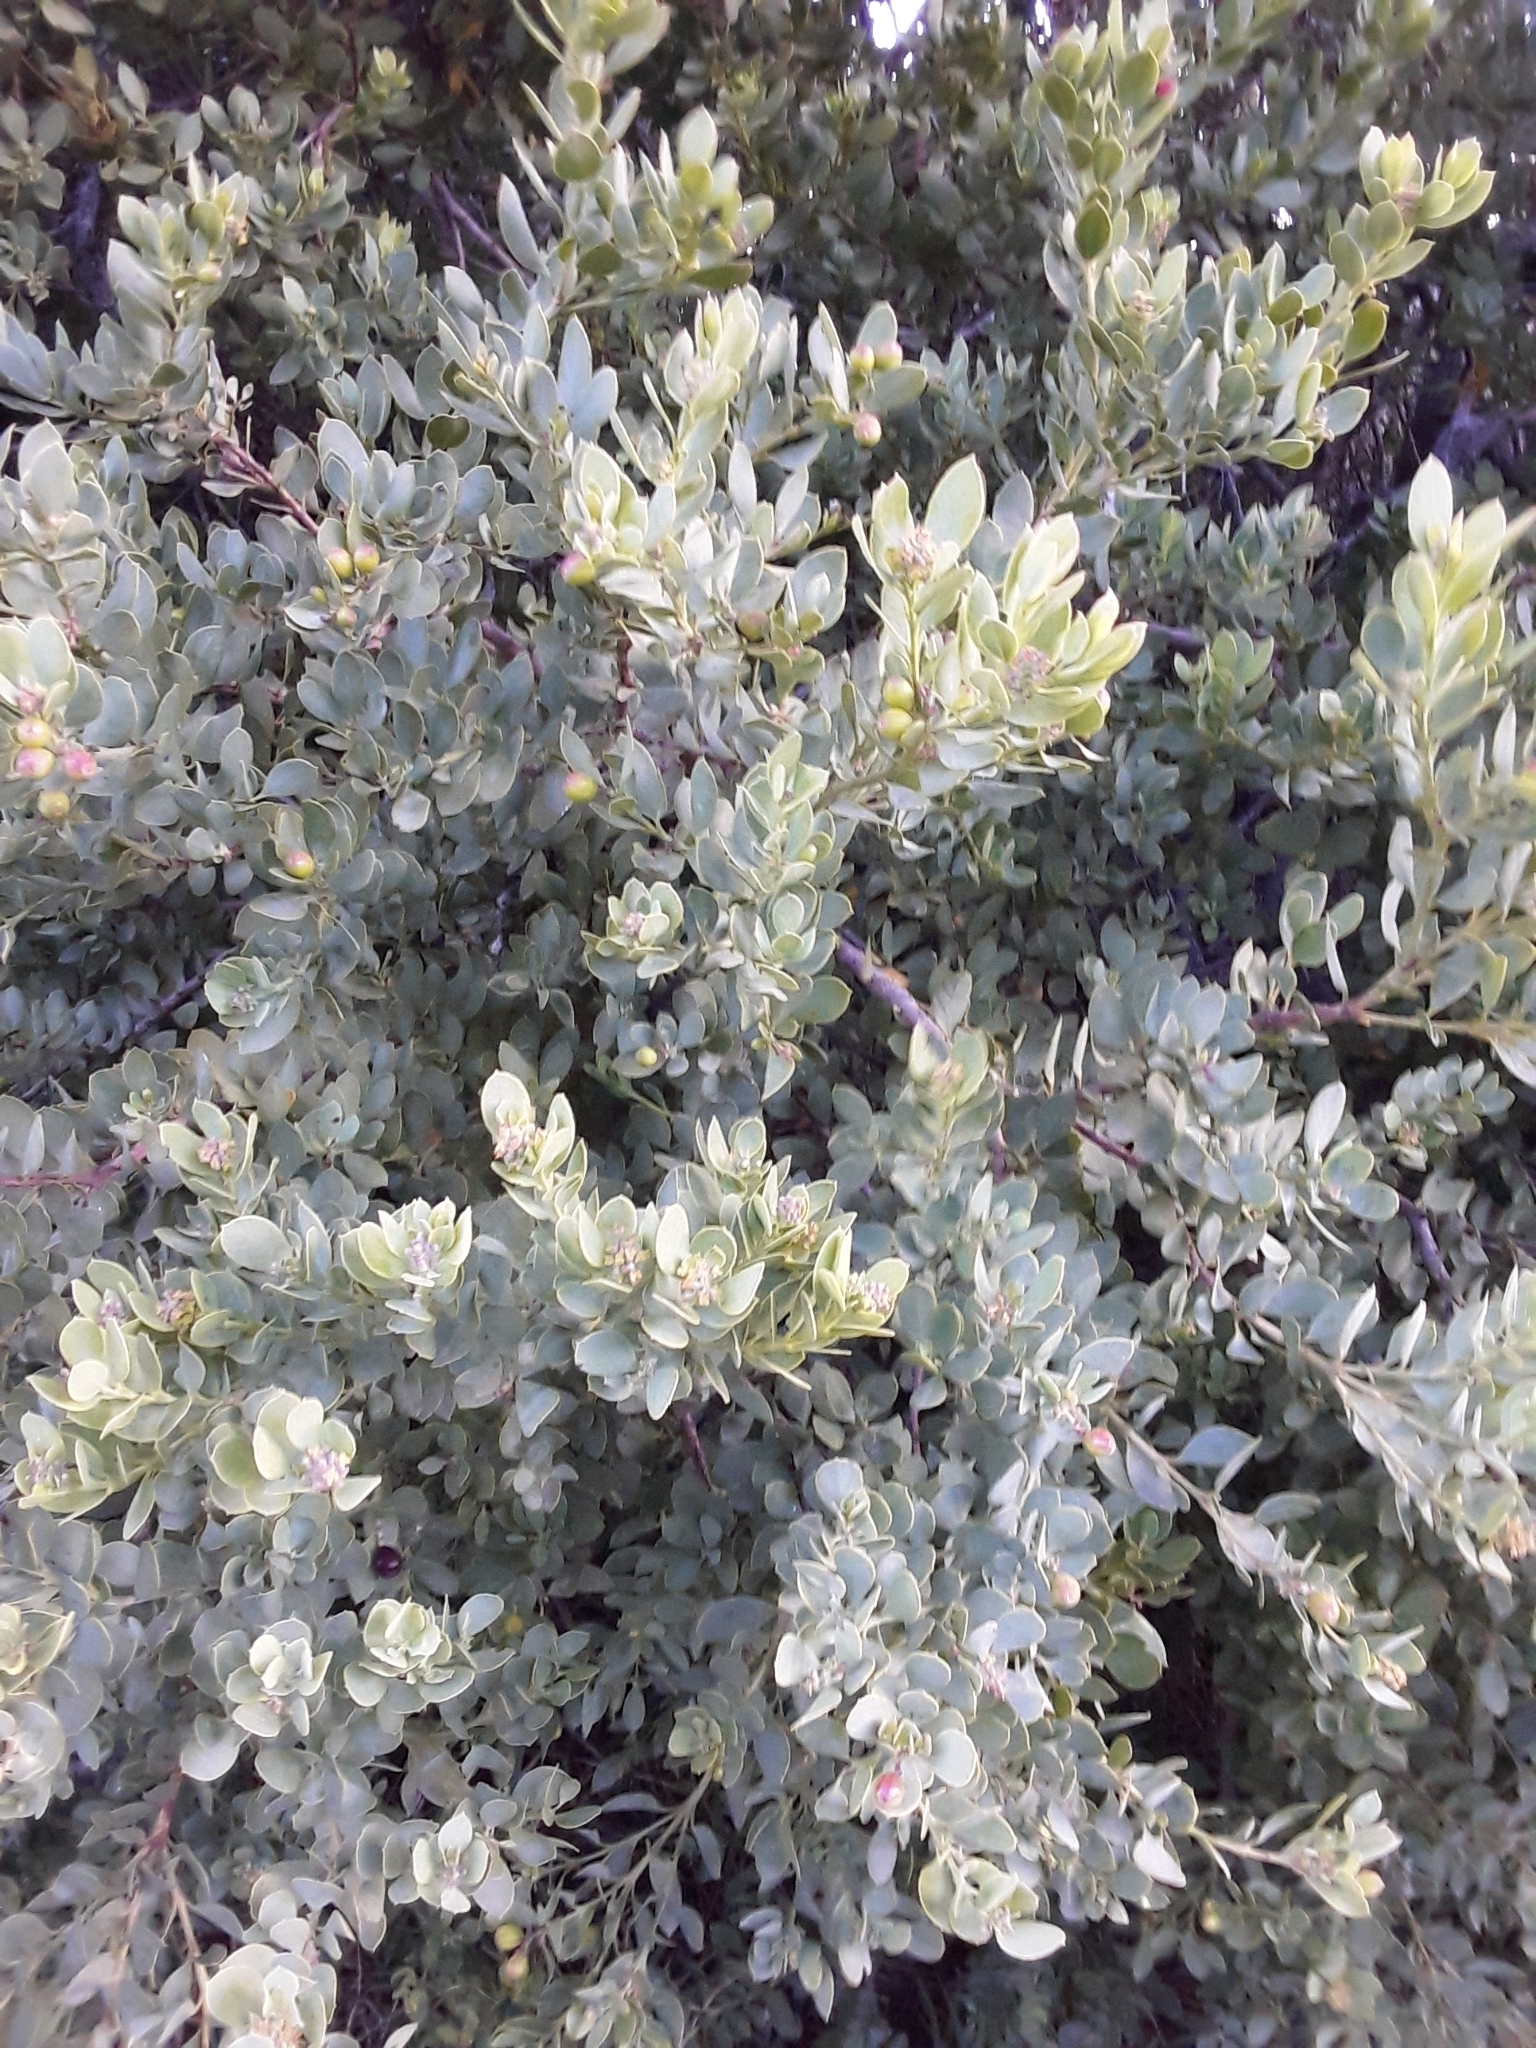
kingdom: Plantae
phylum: Tracheophyta
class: Magnoliopsida
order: Santalales
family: Santalaceae
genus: Osyris
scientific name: Osyris compressa
